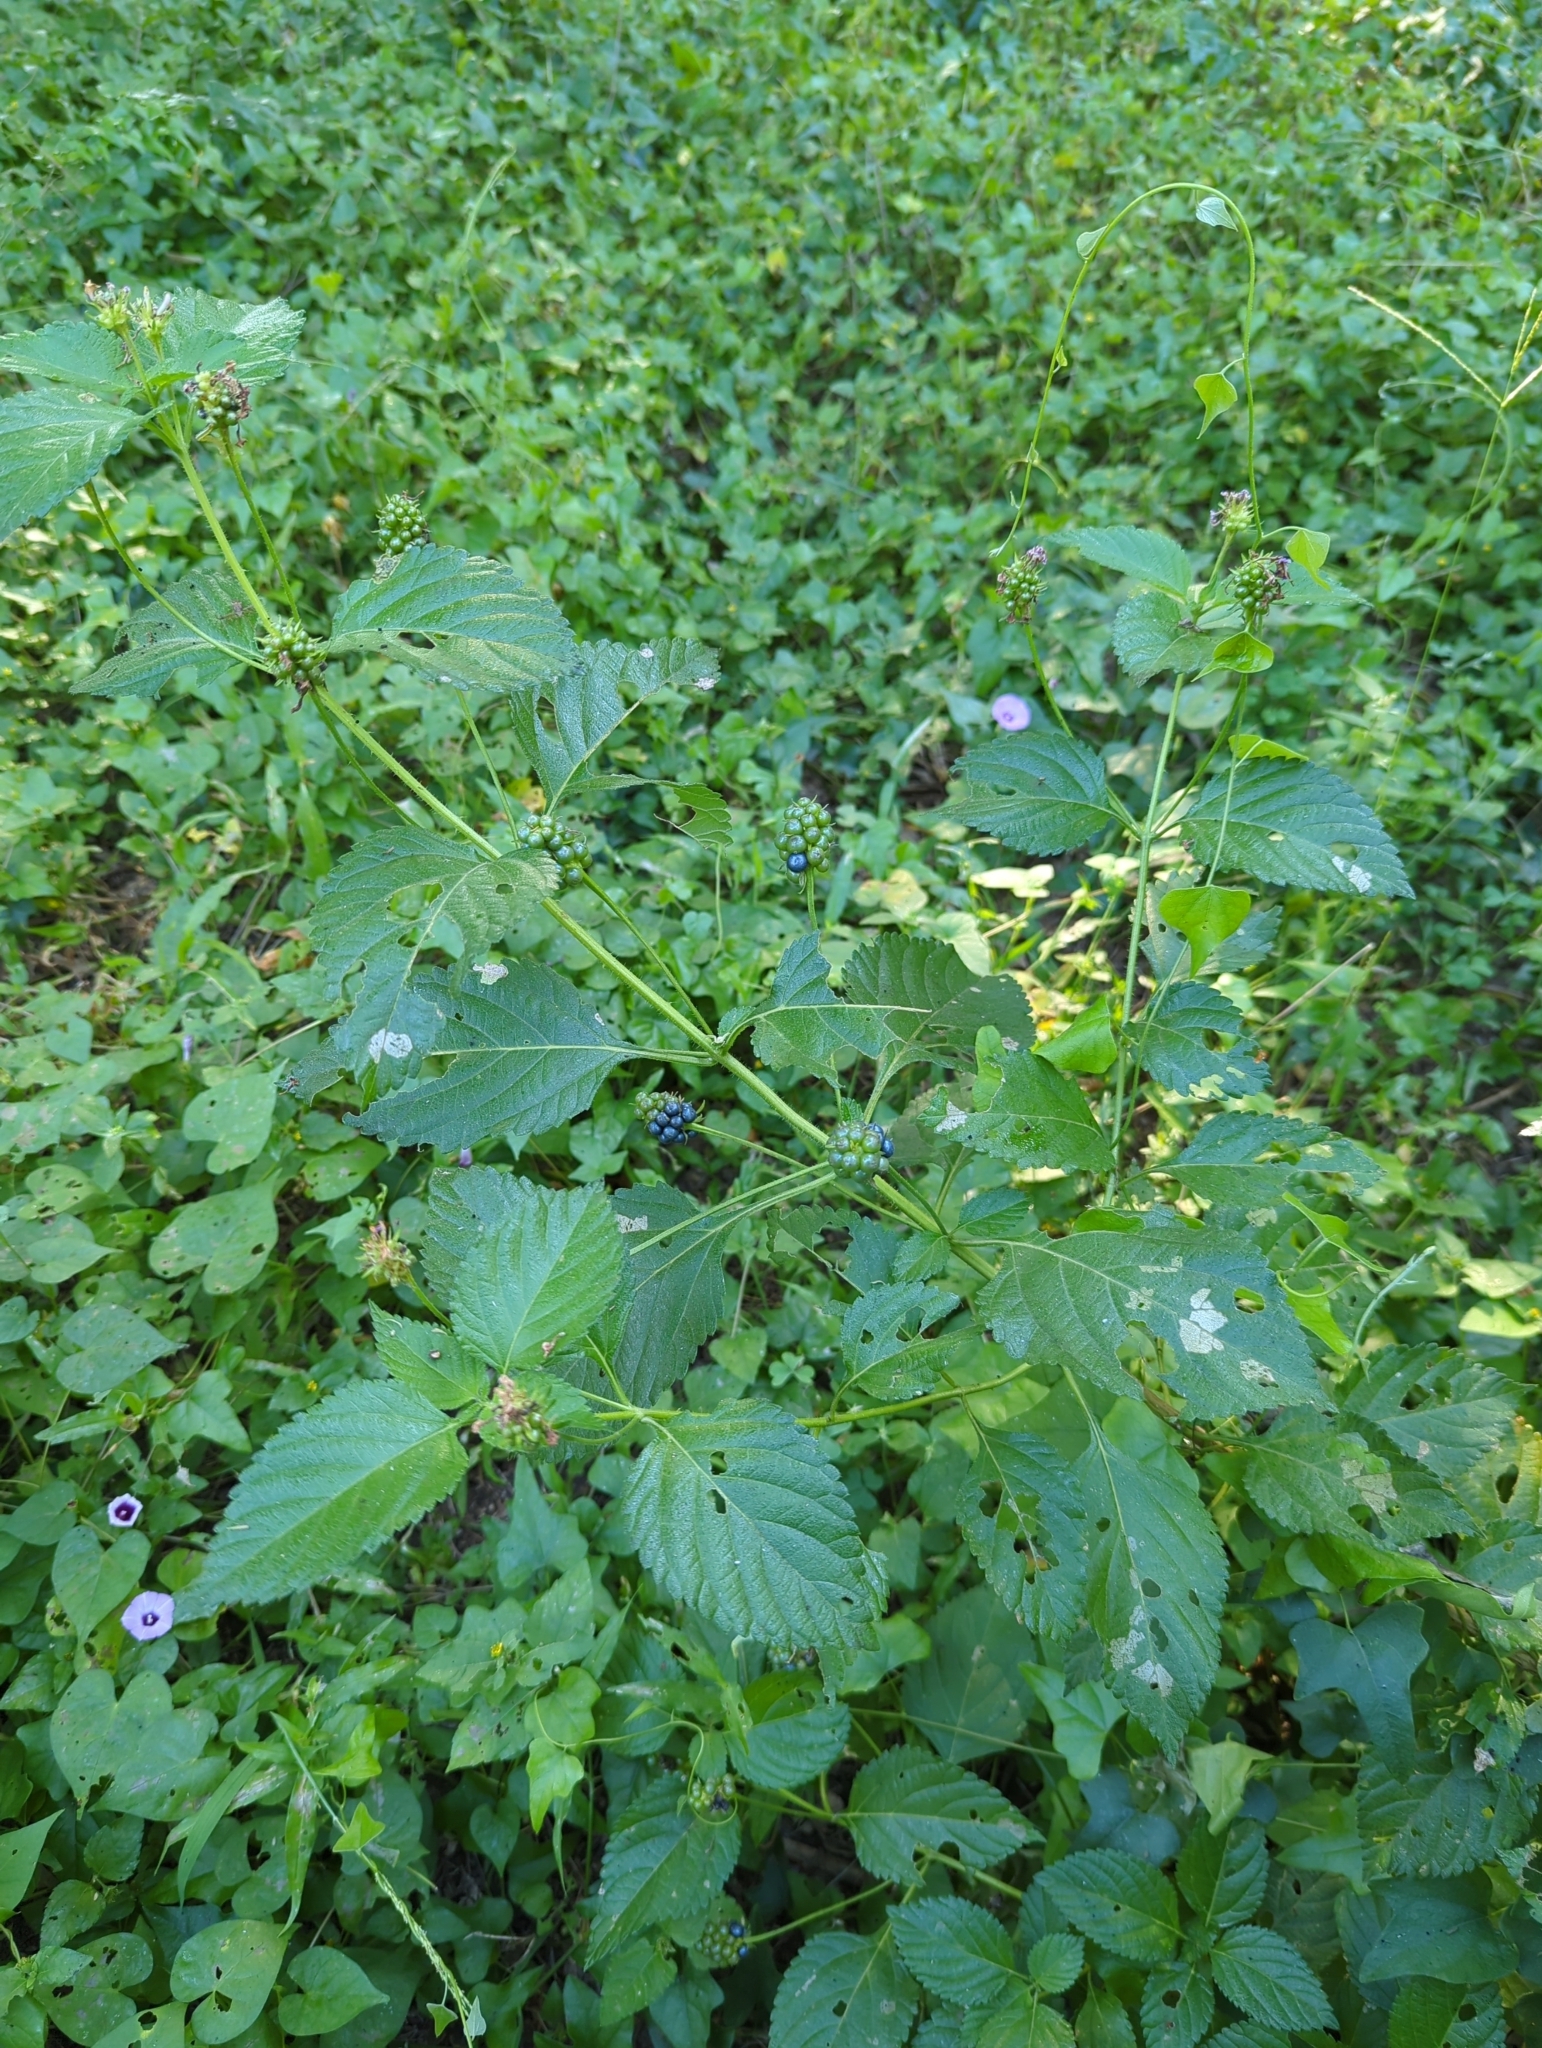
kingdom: Plantae
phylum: Tracheophyta
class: Magnoliopsida
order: Lamiales
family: Verbenaceae
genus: Lantana
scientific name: Lantana strigocamara
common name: Lantana
